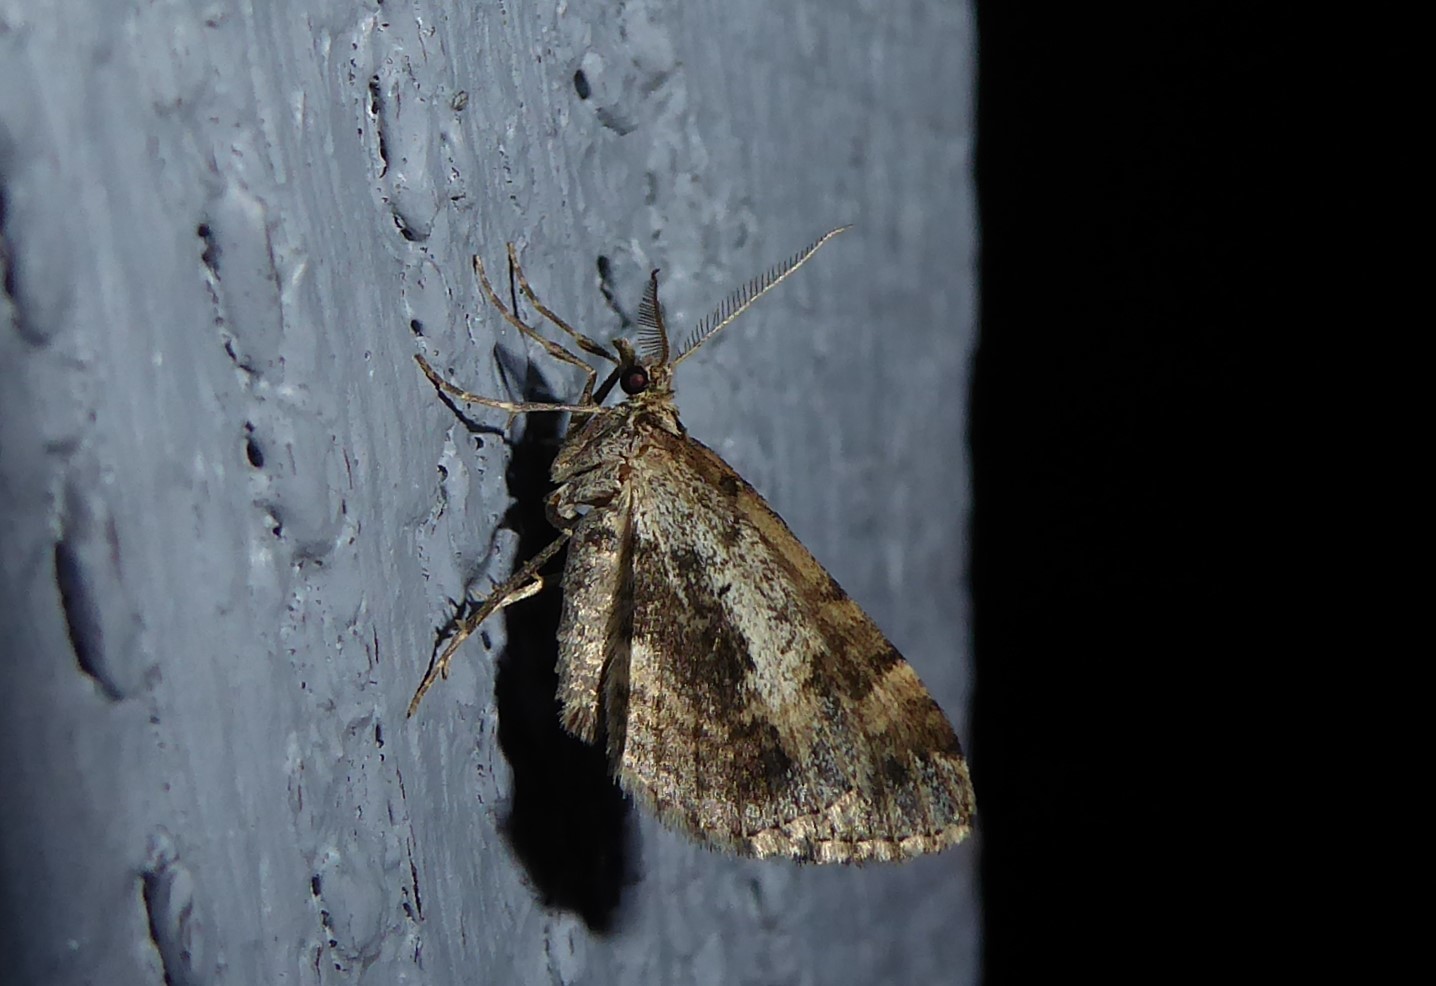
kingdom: Animalia
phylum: Arthropoda
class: Insecta
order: Lepidoptera
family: Geometridae
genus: Asaphodes
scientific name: Asaphodes aegrota
